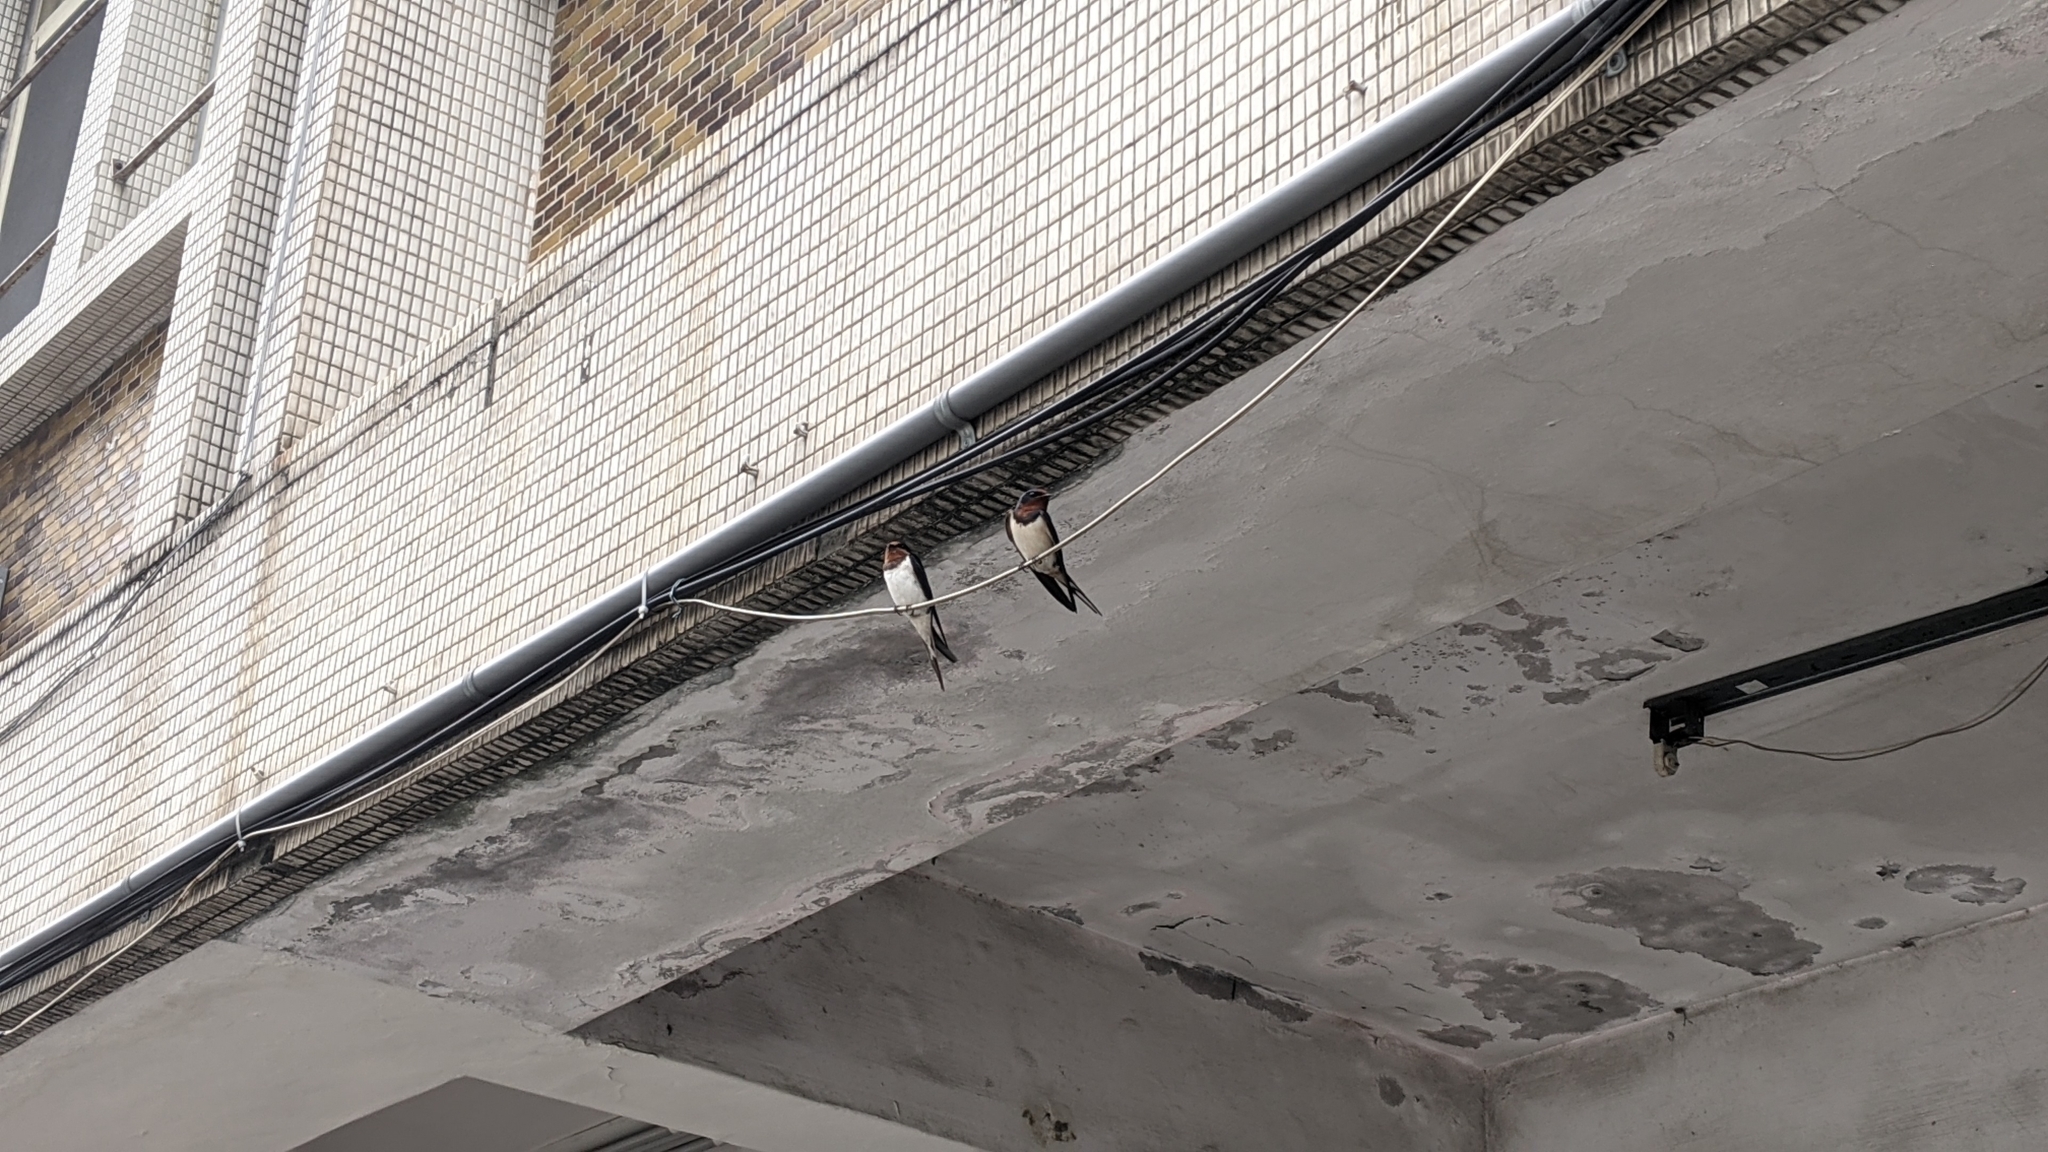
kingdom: Animalia
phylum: Chordata
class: Aves
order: Passeriformes
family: Hirundinidae
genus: Hirundo
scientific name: Hirundo rustica
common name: Barn swallow
